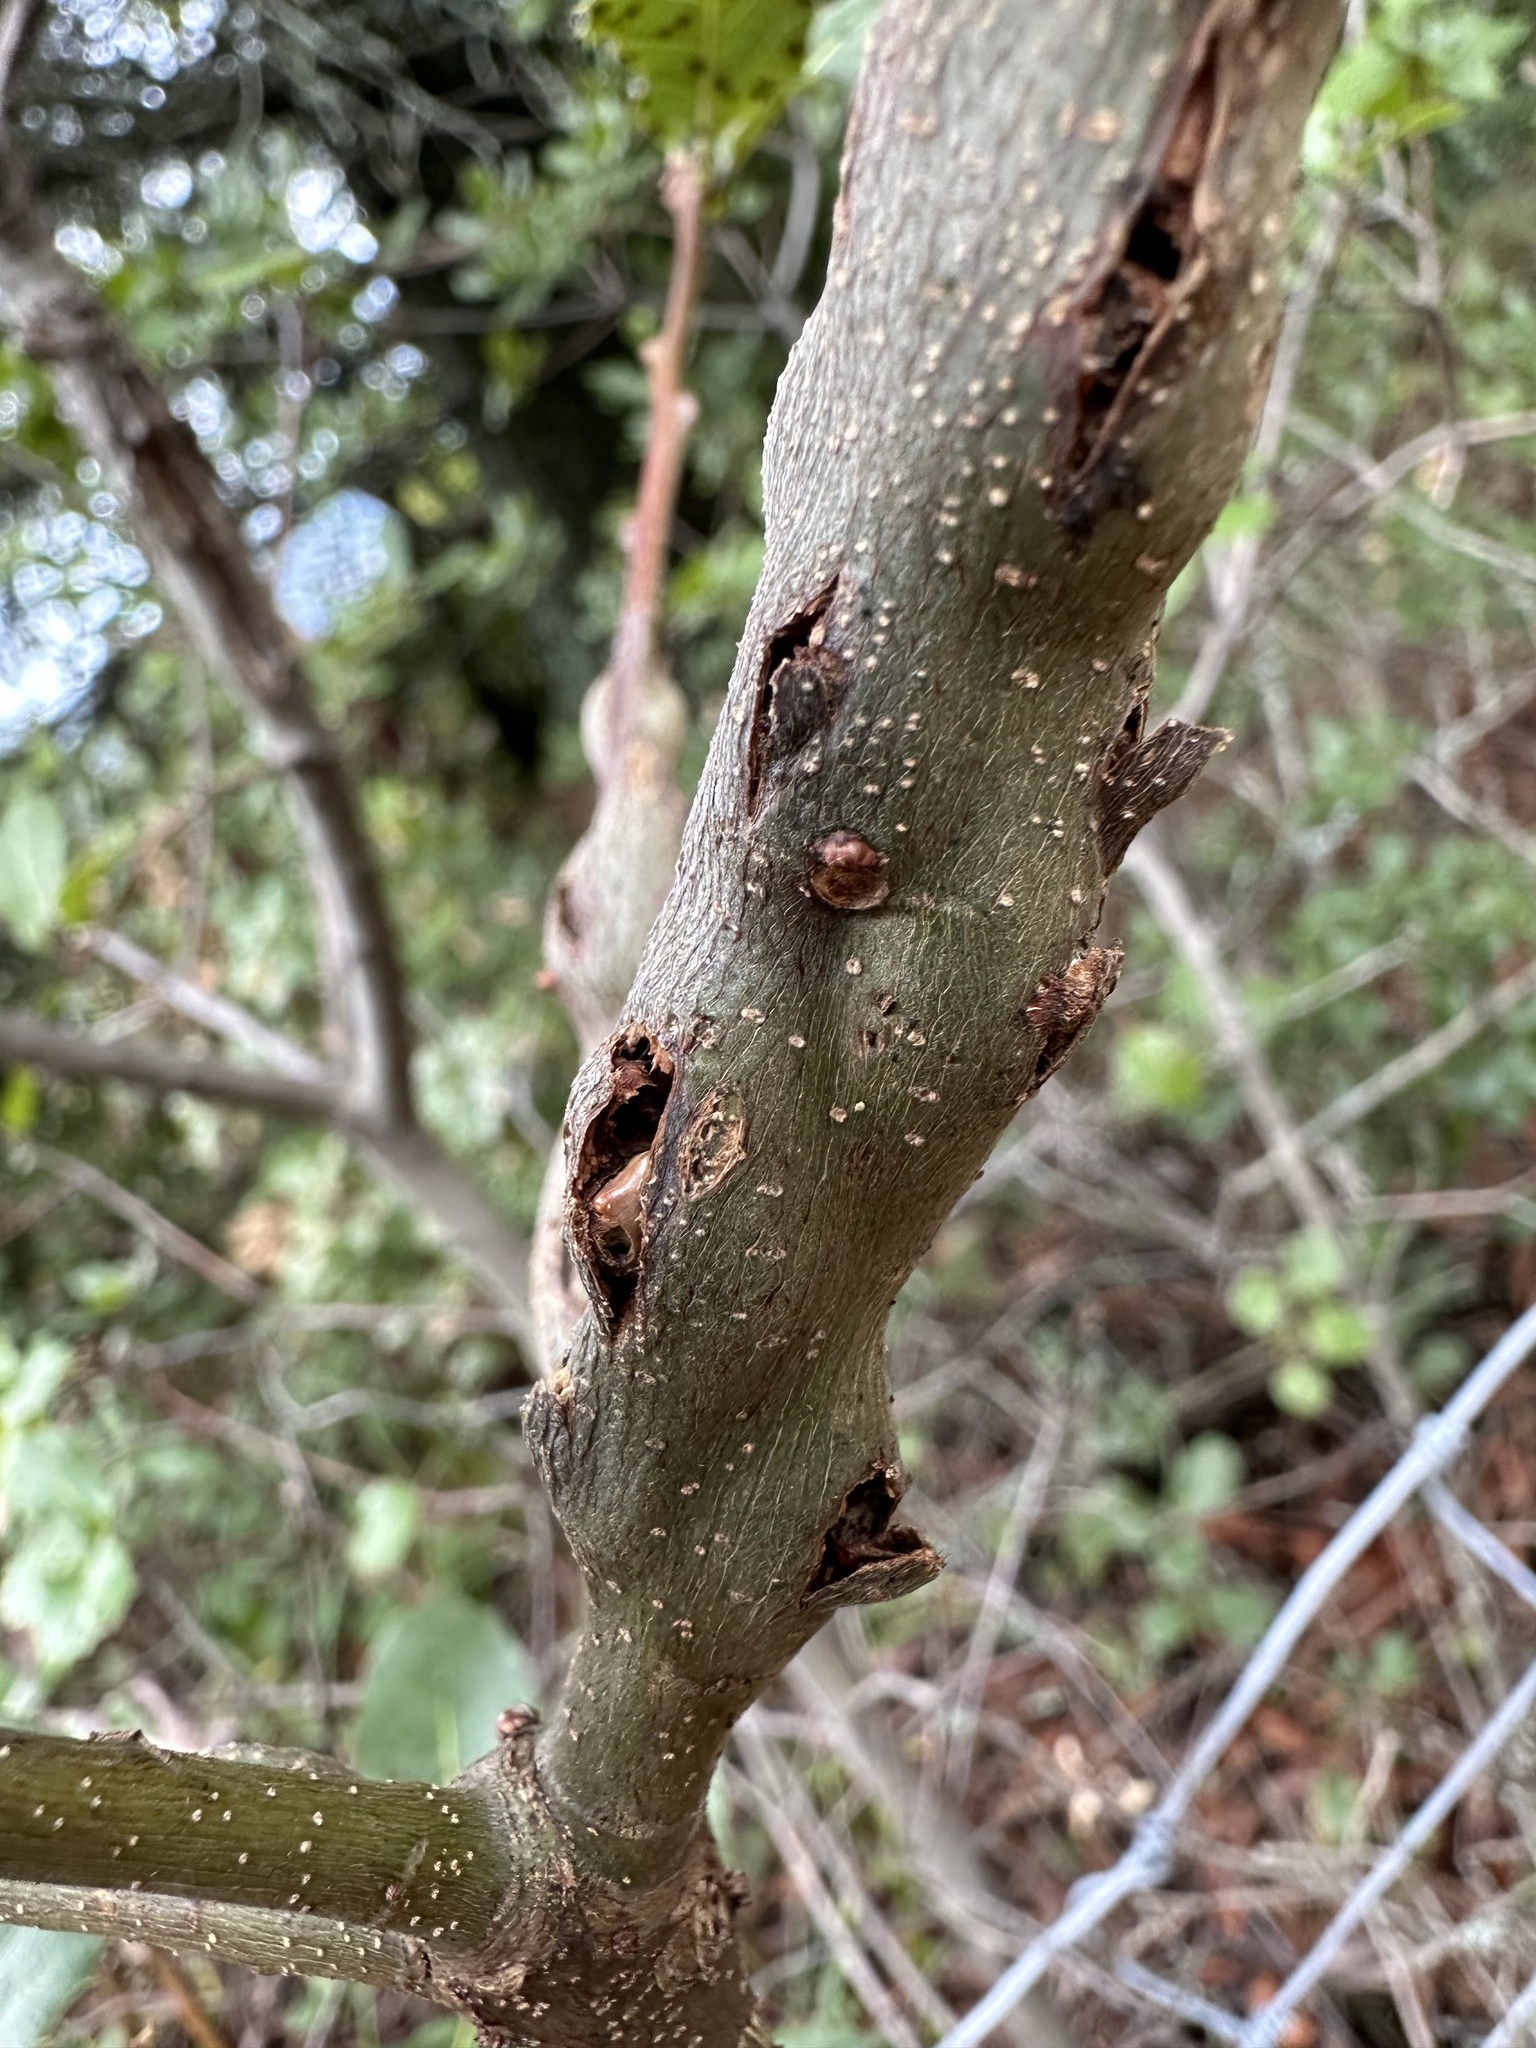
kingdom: Animalia
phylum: Arthropoda
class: Insecta
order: Hymenoptera
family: Cynipidae
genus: Callirhytis
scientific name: Callirhytis
